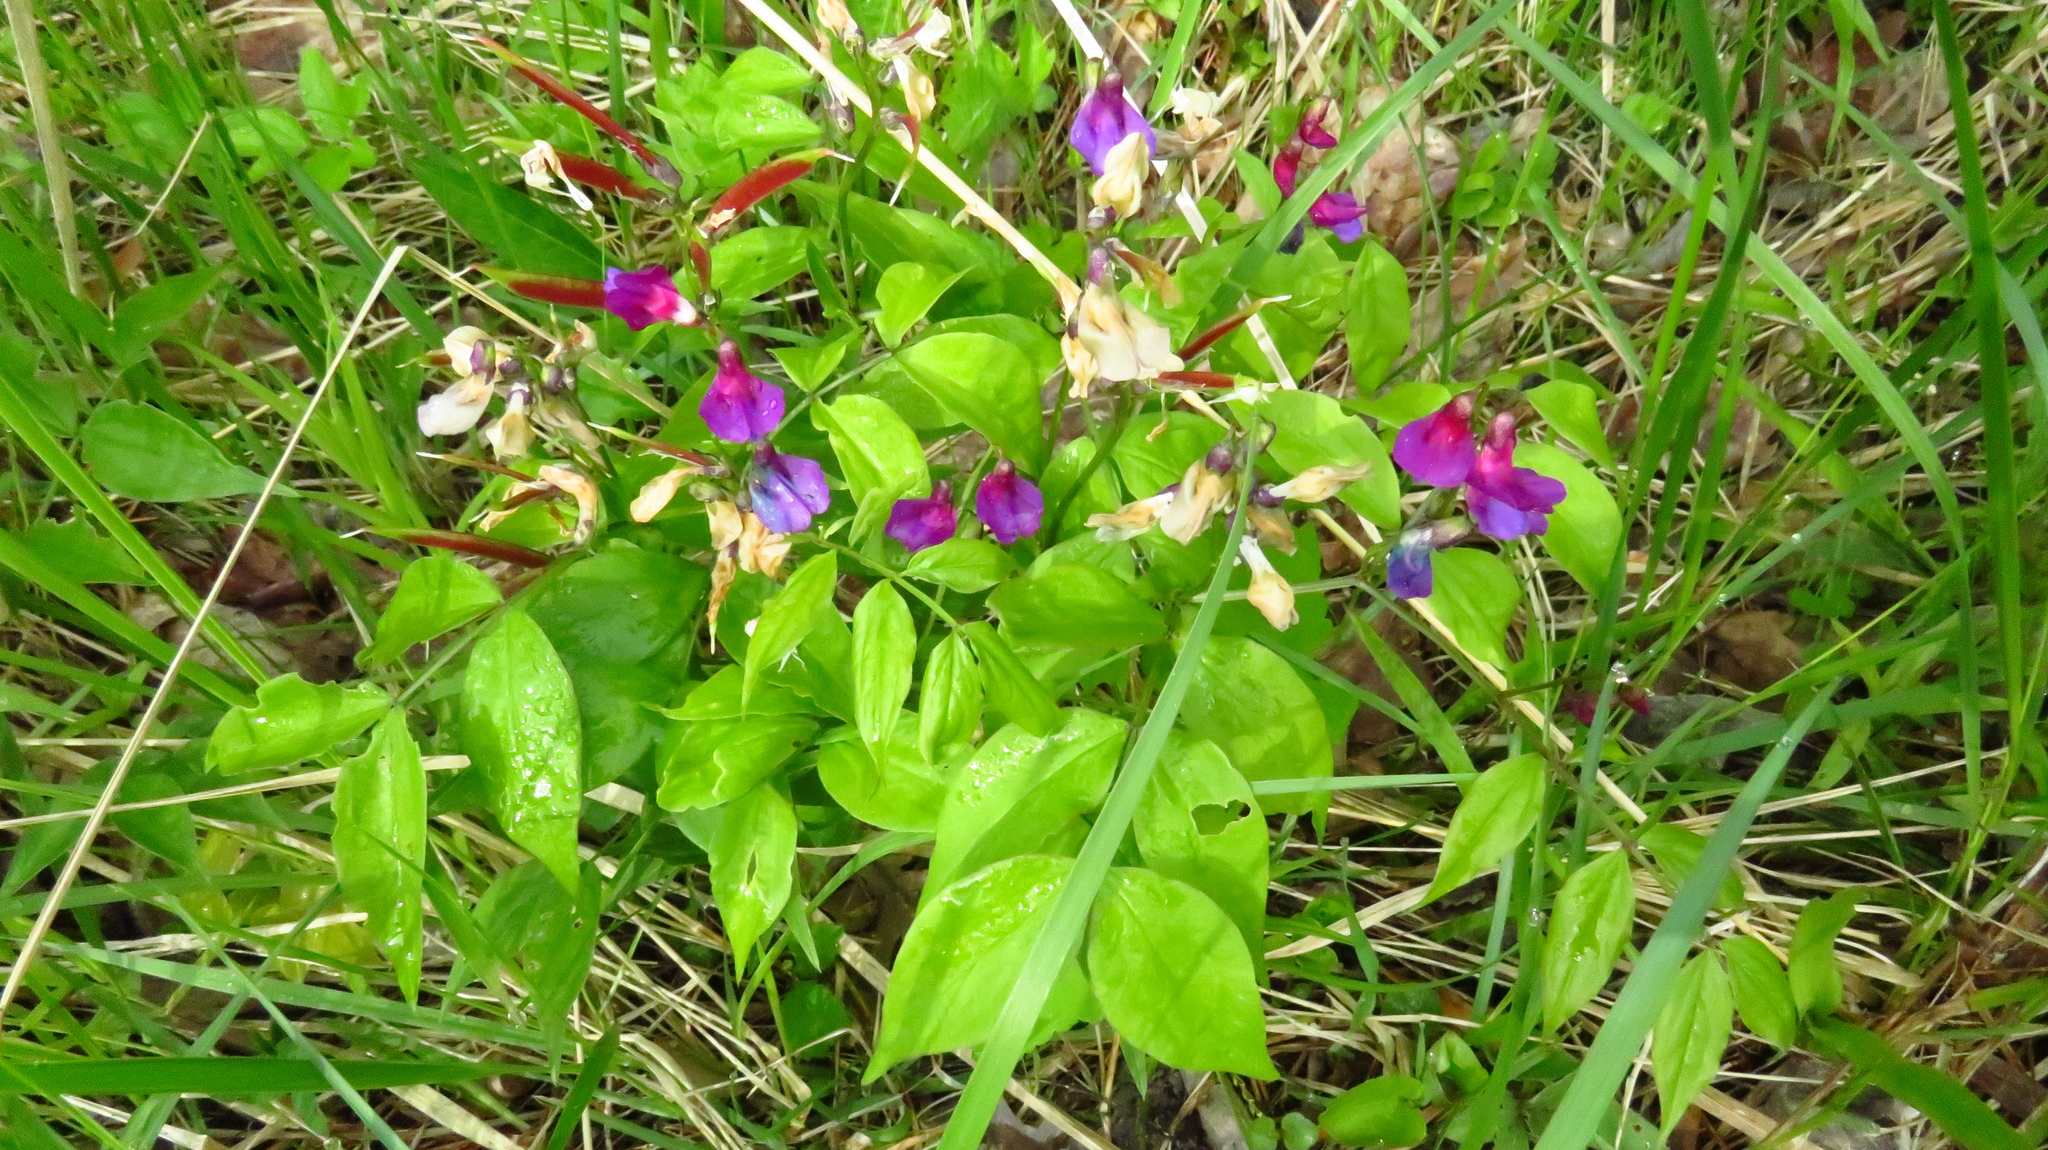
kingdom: Plantae
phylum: Tracheophyta
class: Magnoliopsida
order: Fabales
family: Fabaceae
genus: Lathyrus
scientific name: Lathyrus vernus
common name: Spring pea
